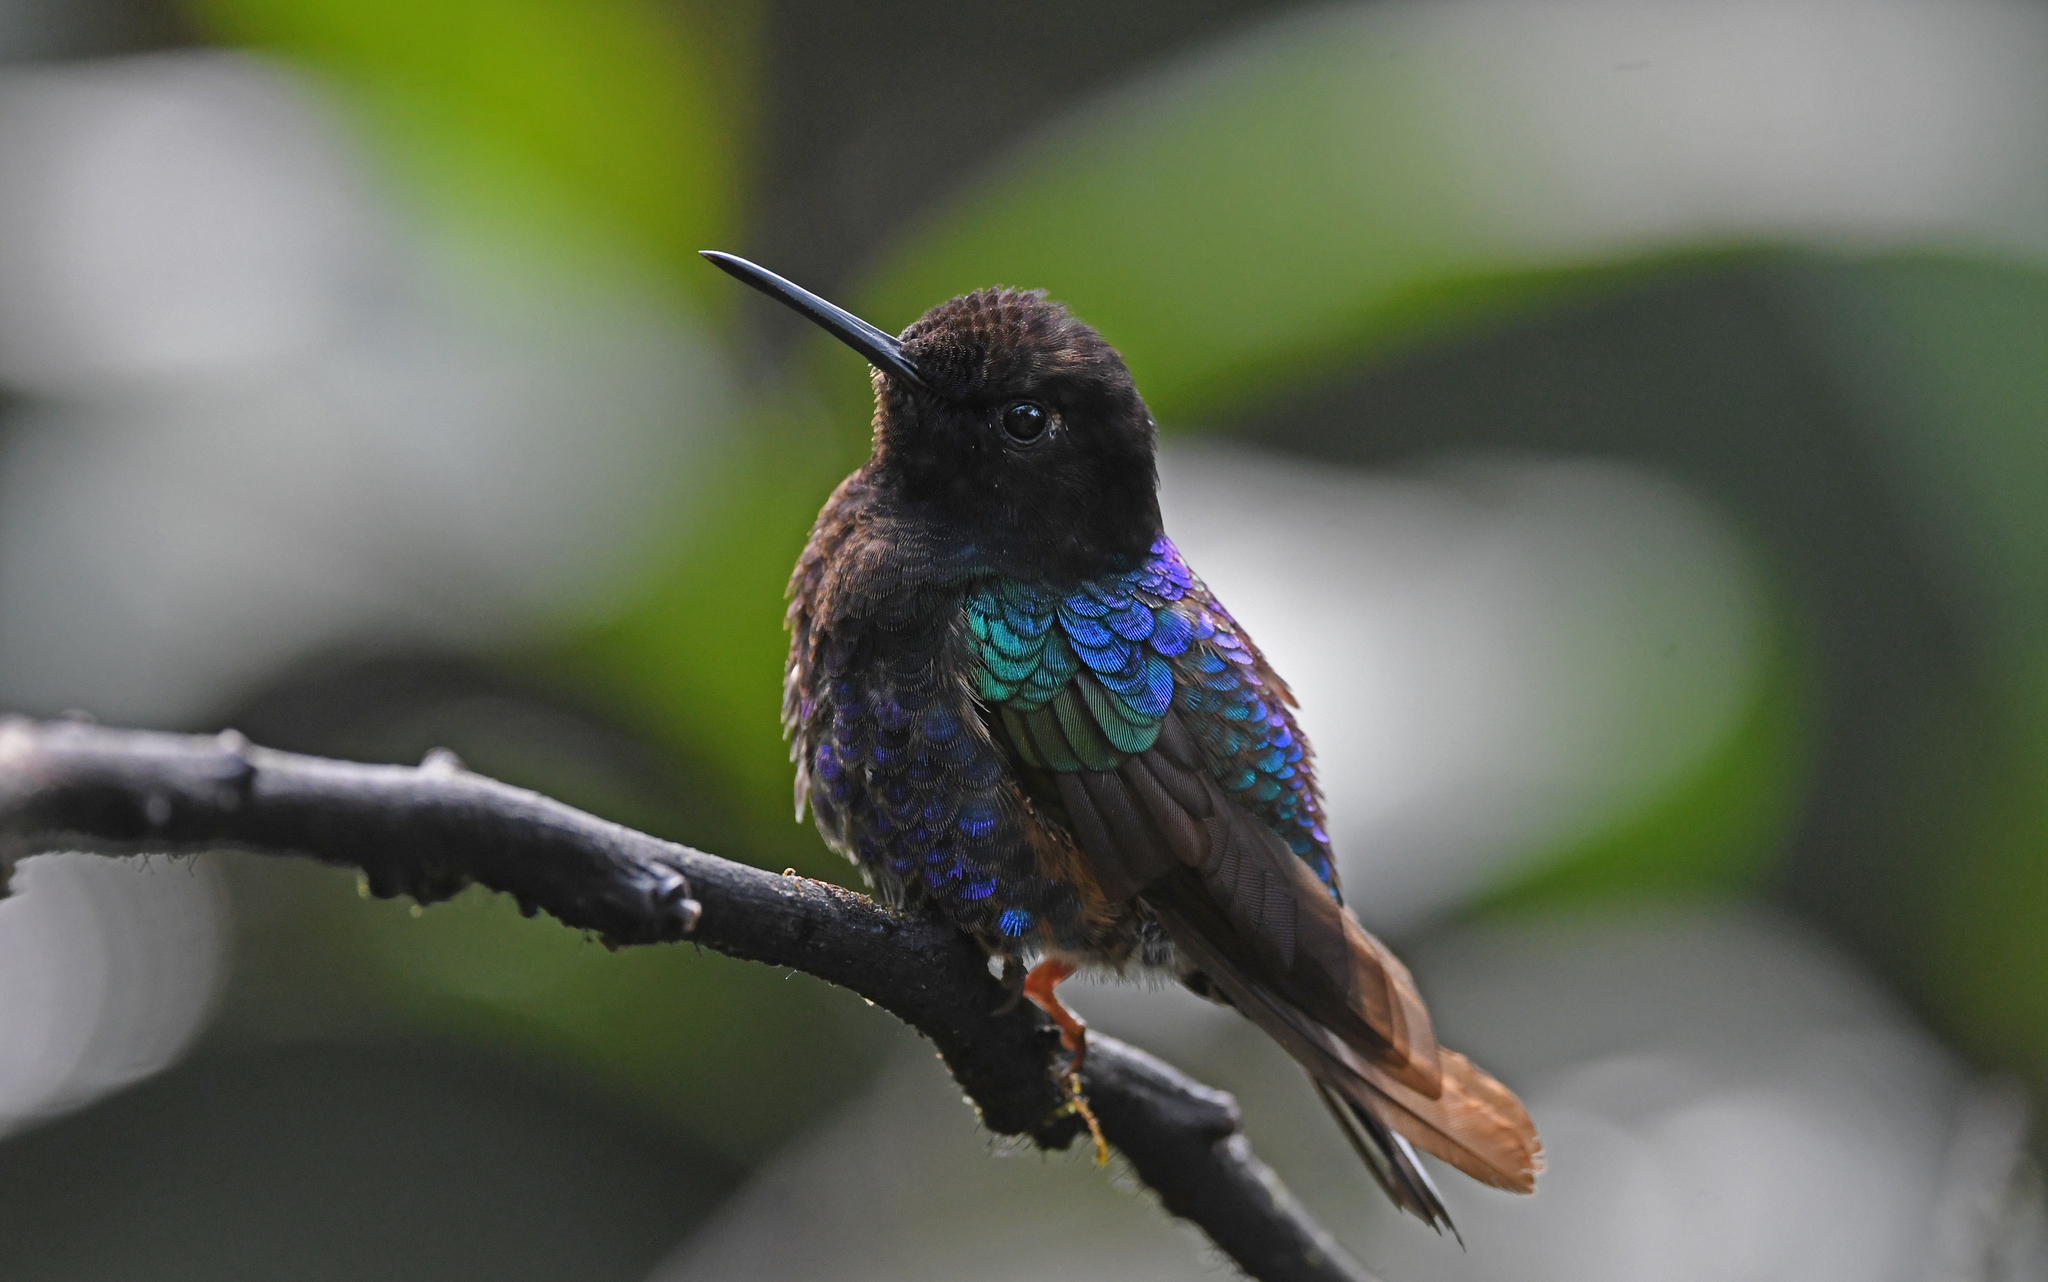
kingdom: Animalia
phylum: Chordata
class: Aves
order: Apodiformes
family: Trochilidae
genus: Boissonneaua
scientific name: Boissonneaua jardini
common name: Velvet-purple coronet
